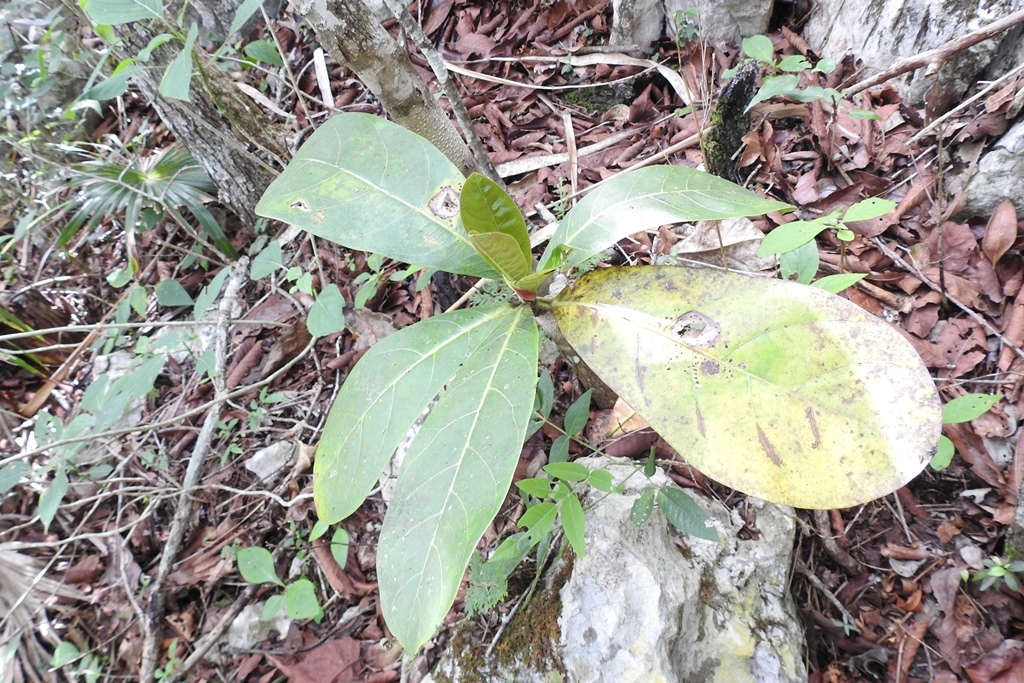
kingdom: Plantae
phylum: Tracheophyta
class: Magnoliopsida
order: Rosales
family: Moraceae
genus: Ficus
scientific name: Ficus obtusifolia
